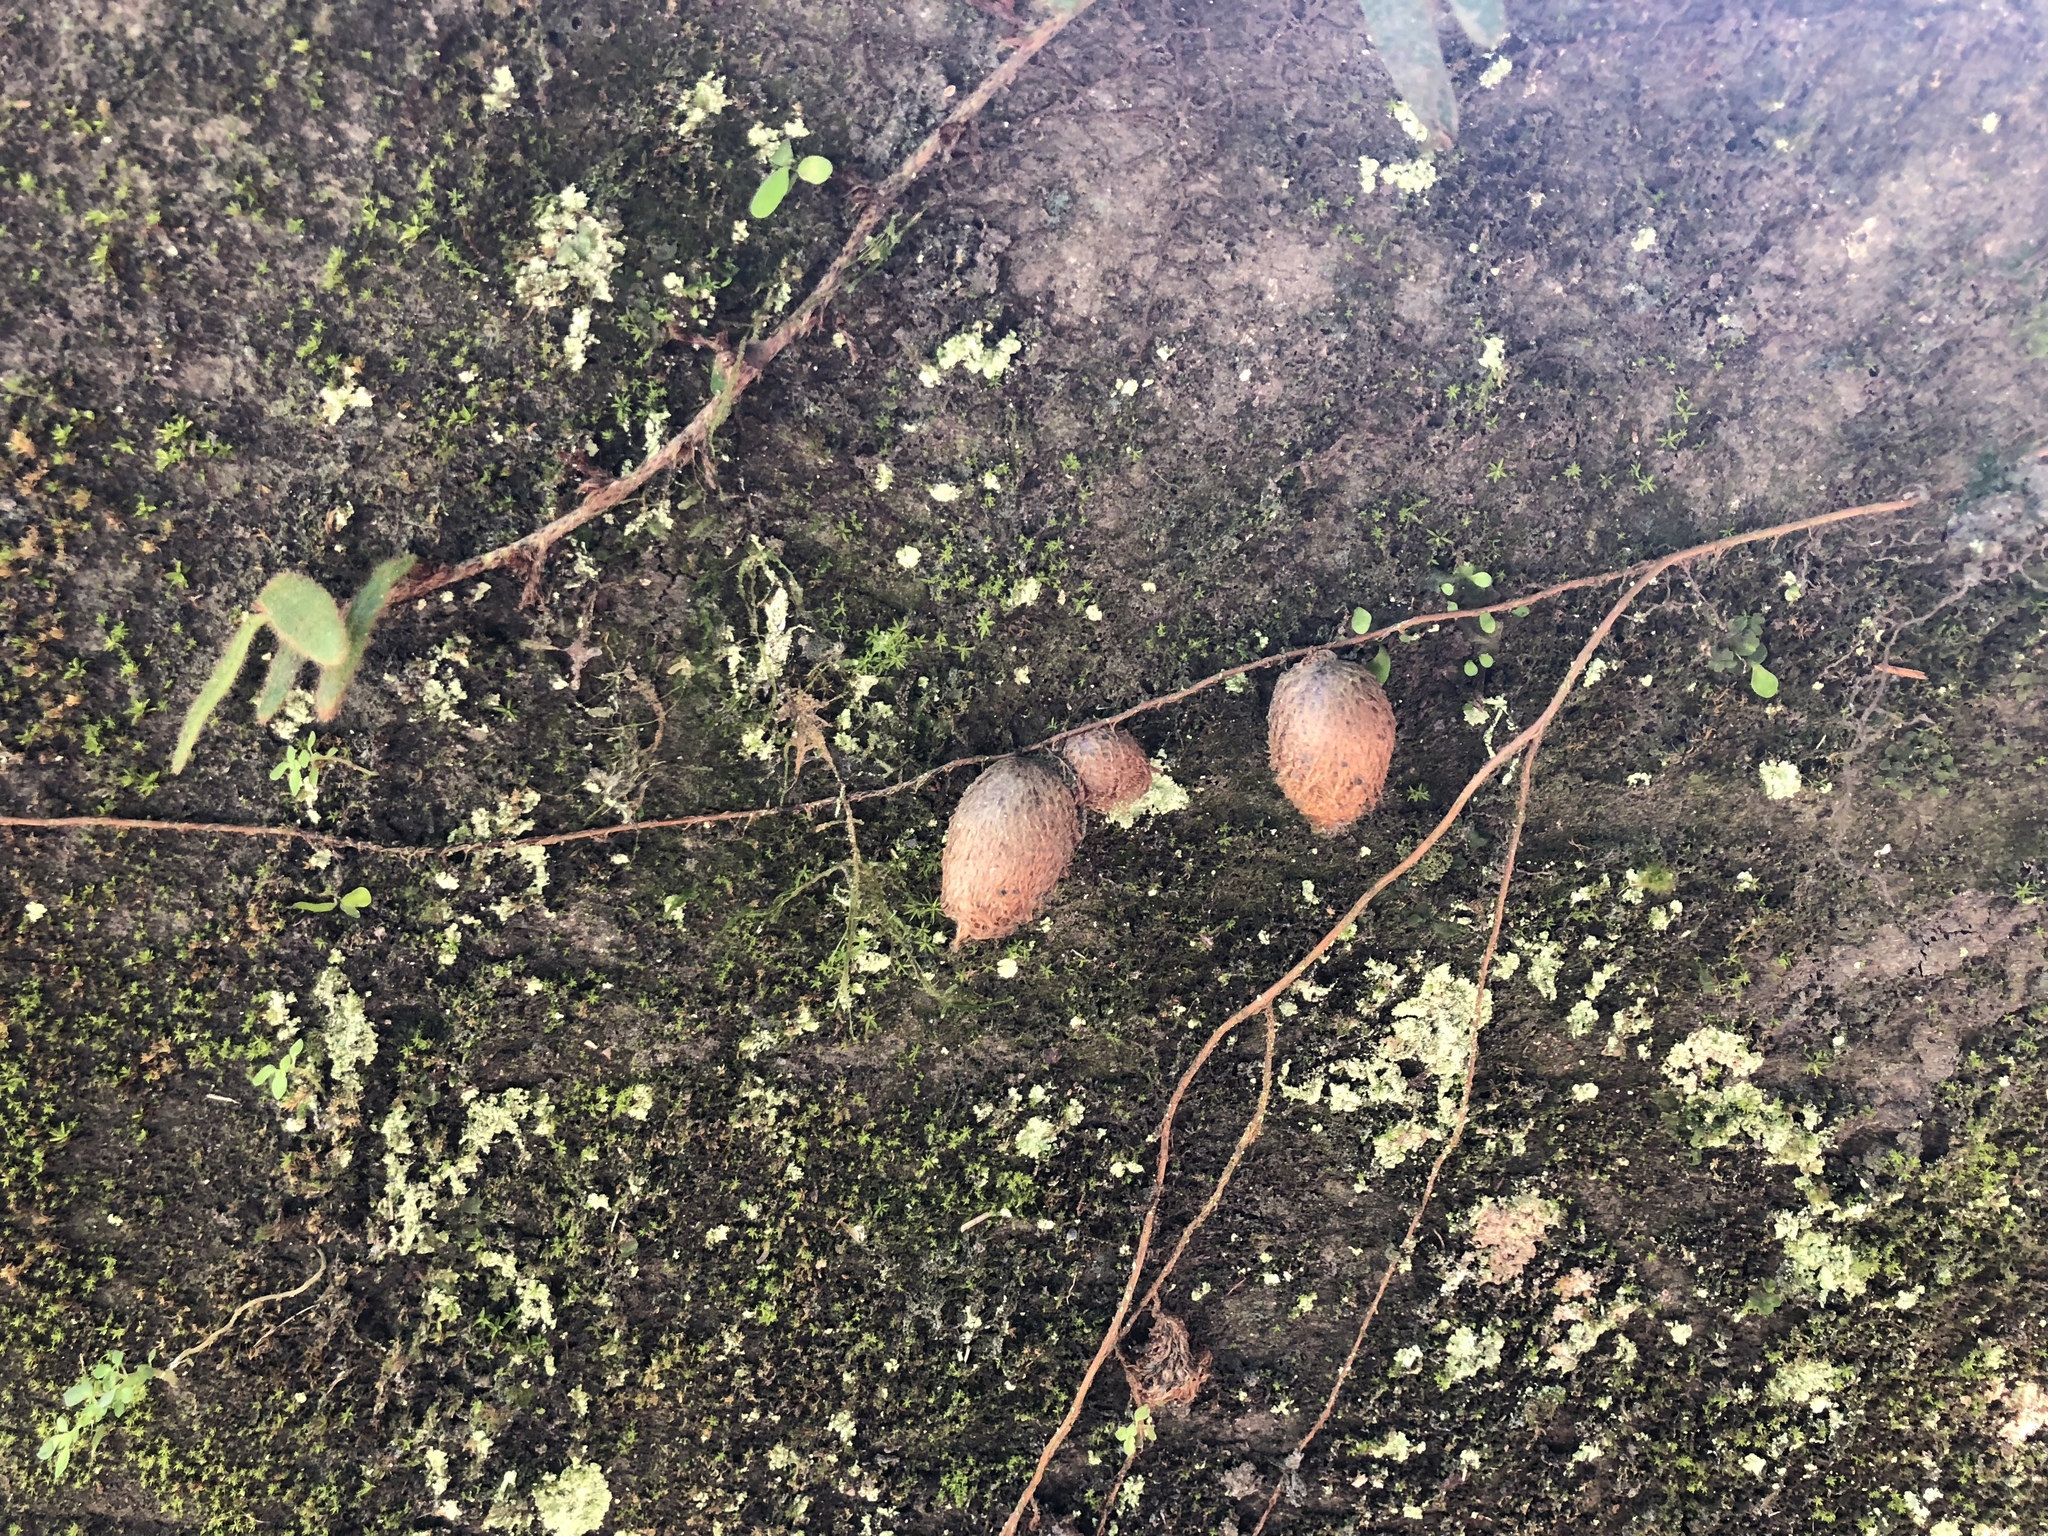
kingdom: Plantae
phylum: Tracheophyta
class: Polypodiopsida
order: Polypodiales
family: Nephrolepidaceae
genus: Nephrolepis
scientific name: Nephrolepis cordifolia
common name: Narrow swordfern
